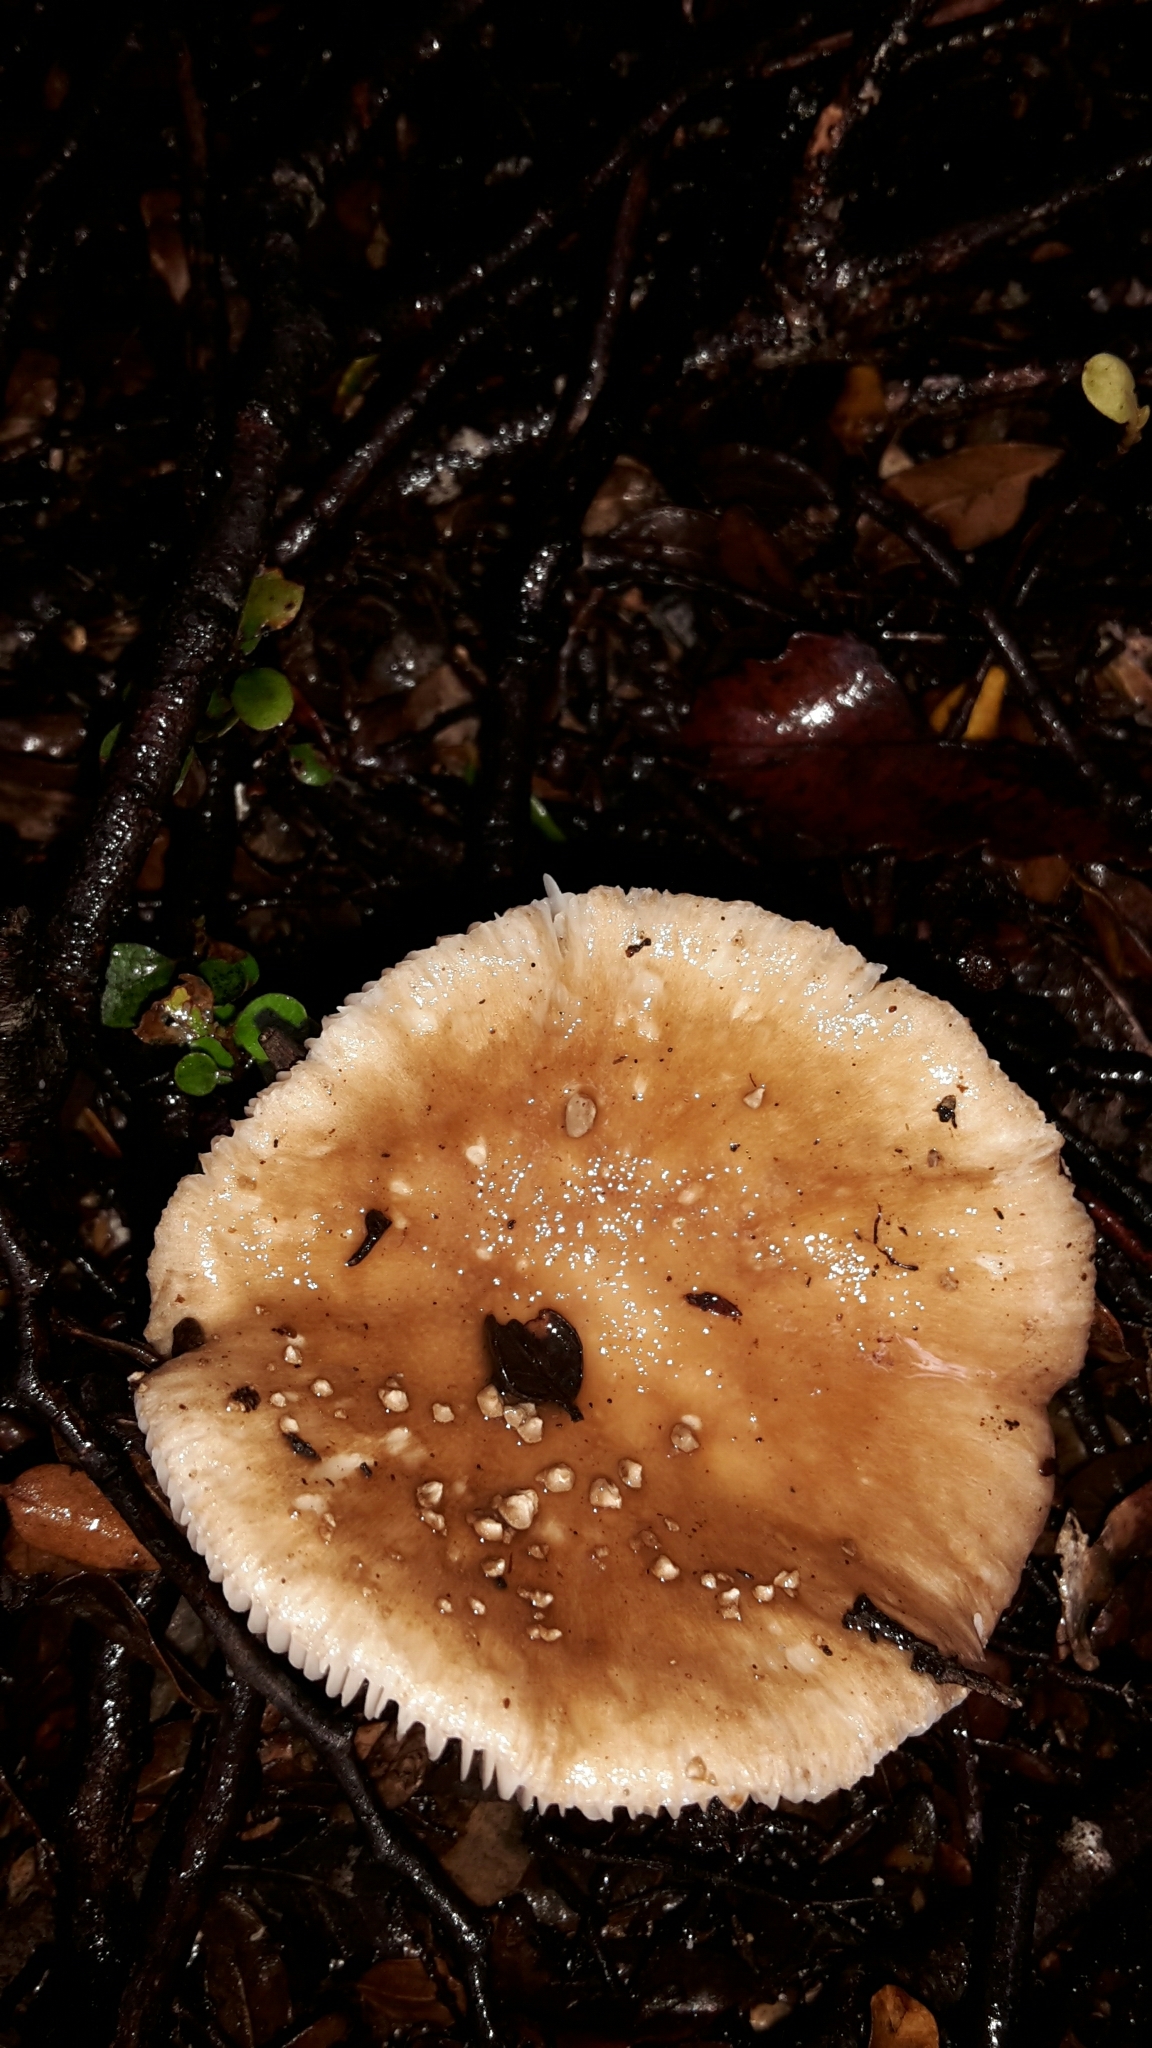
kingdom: Fungi
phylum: Basidiomycota
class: Agaricomycetes
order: Agaricales
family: Amanitaceae
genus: Amanita
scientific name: Amanita australis
